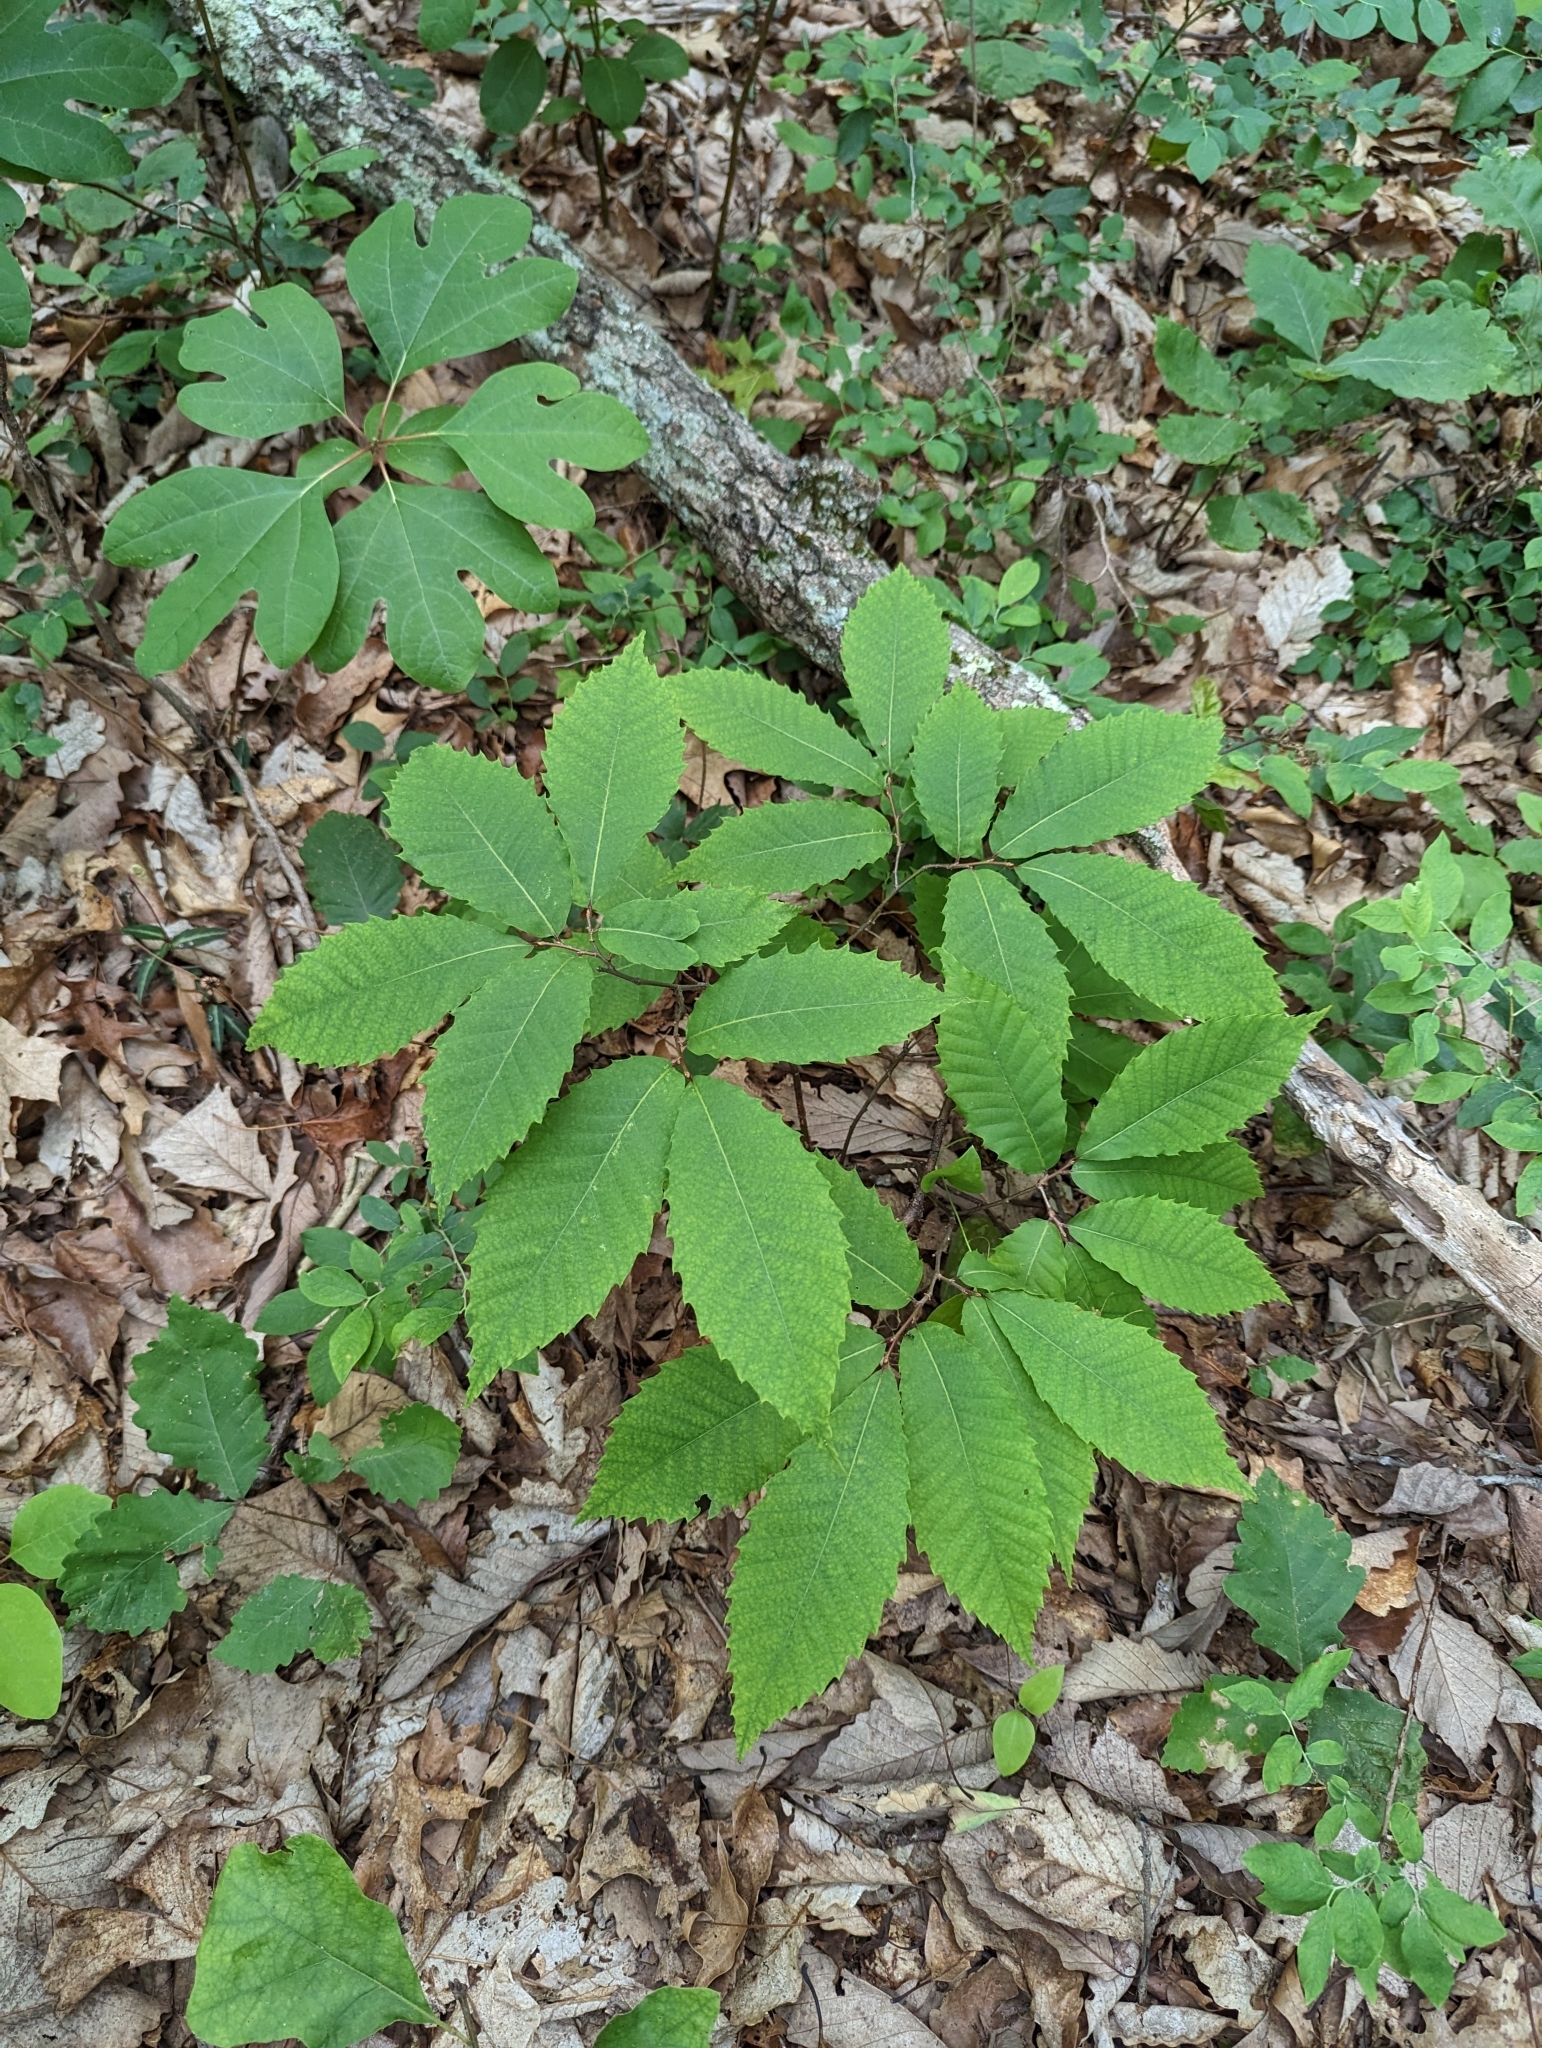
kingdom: Plantae
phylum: Tracheophyta
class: Magnoliopsida
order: Fagales
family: Fagaceae
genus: Castanea
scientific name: Castanea dentata
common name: American chestnut
